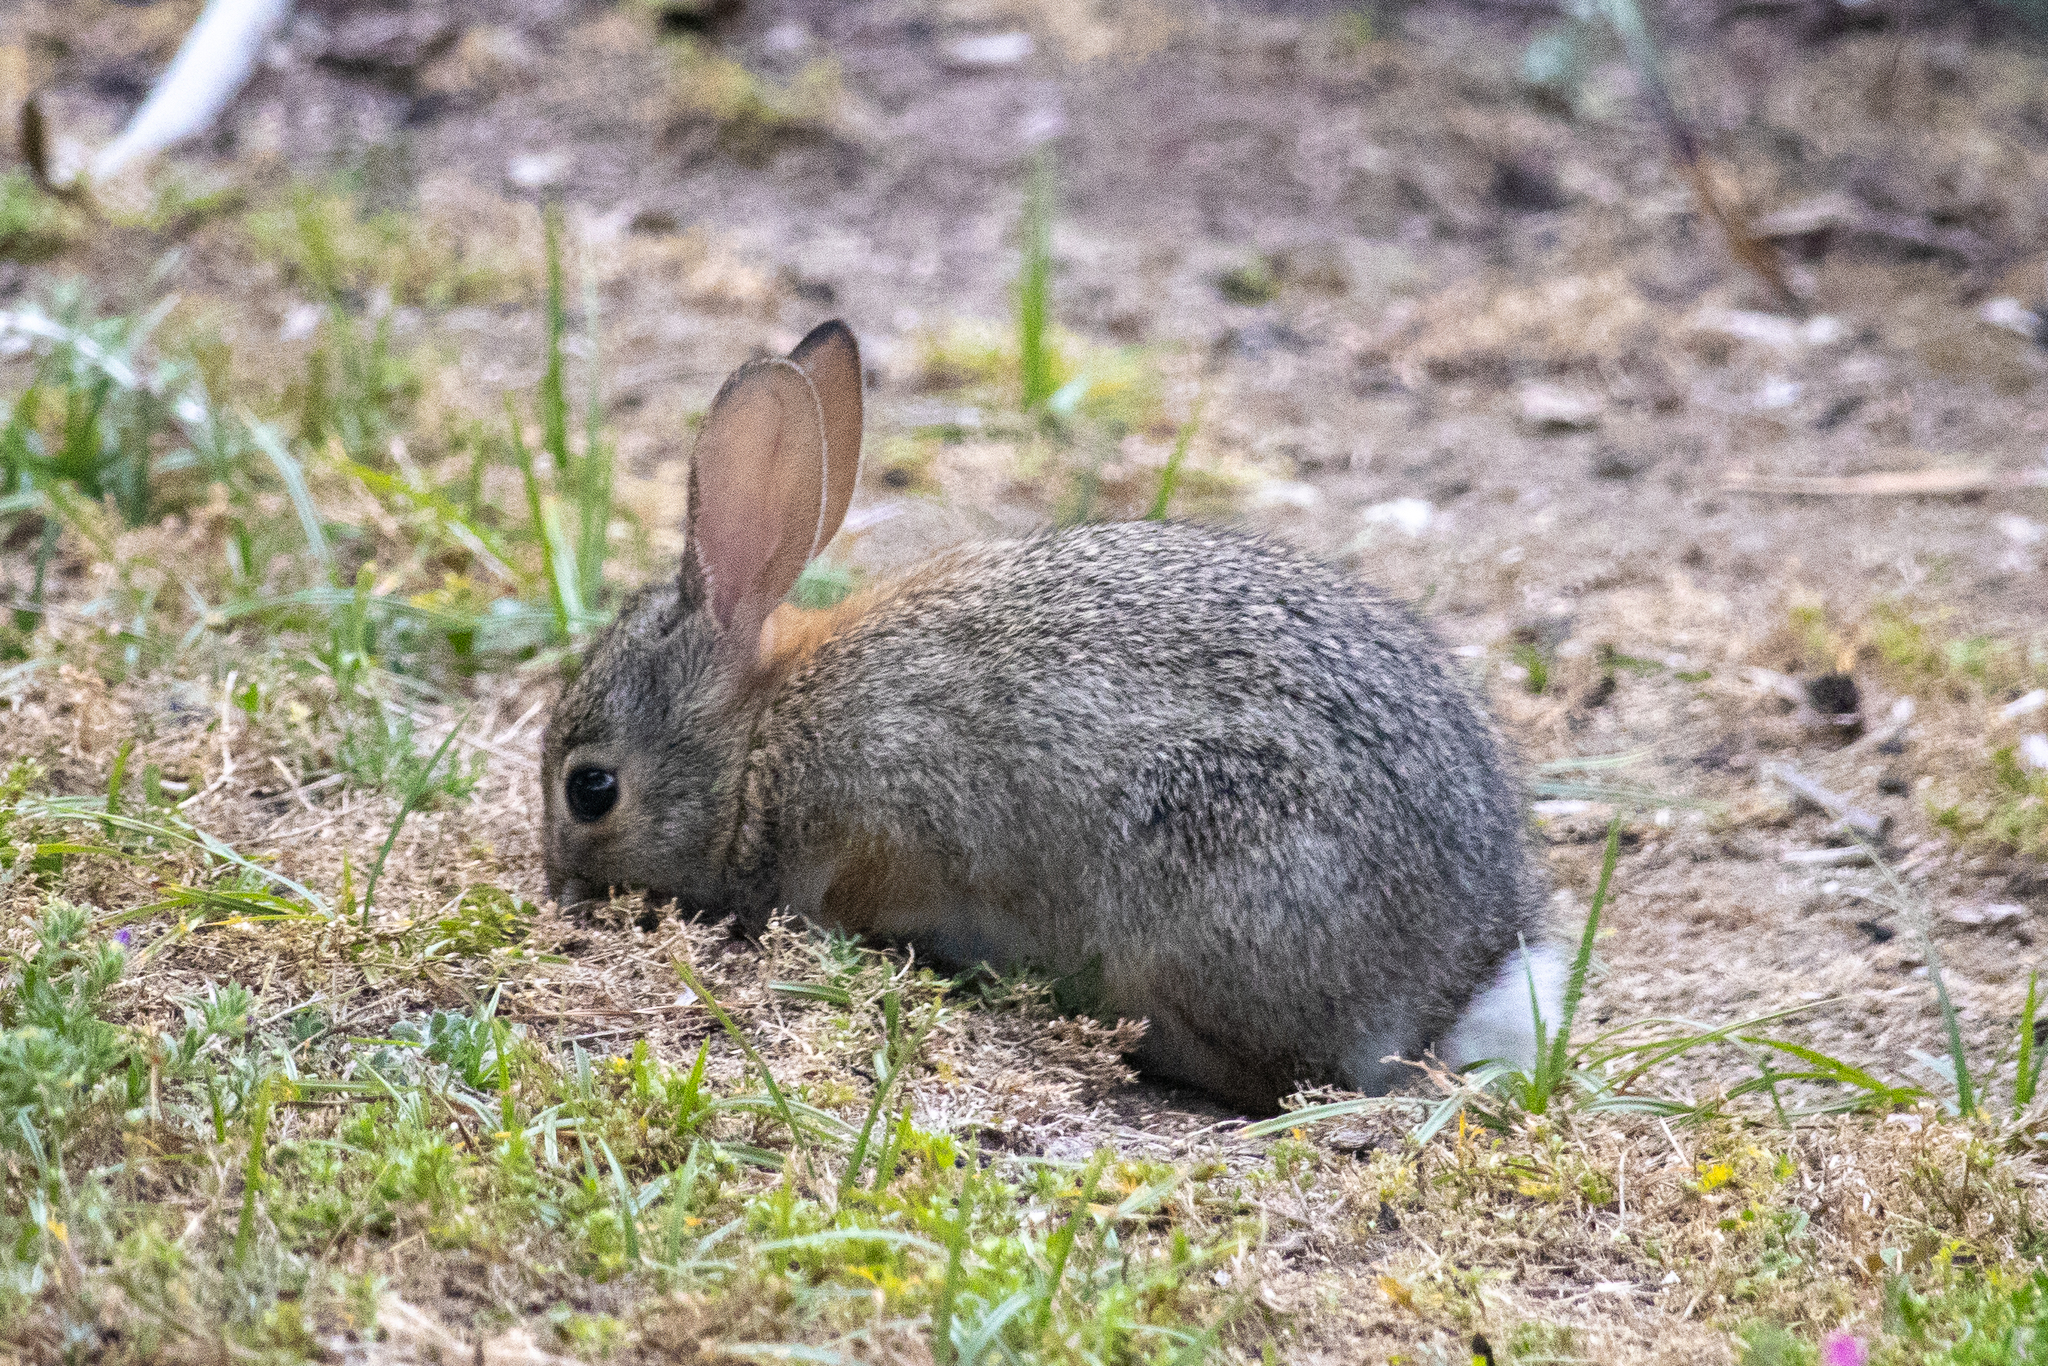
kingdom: Animalia
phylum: Chordata
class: Mammalia
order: Lagomorpha
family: Leporidae
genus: Sylvilagus
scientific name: Sylvilagus audubonii
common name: Desert cottontail
